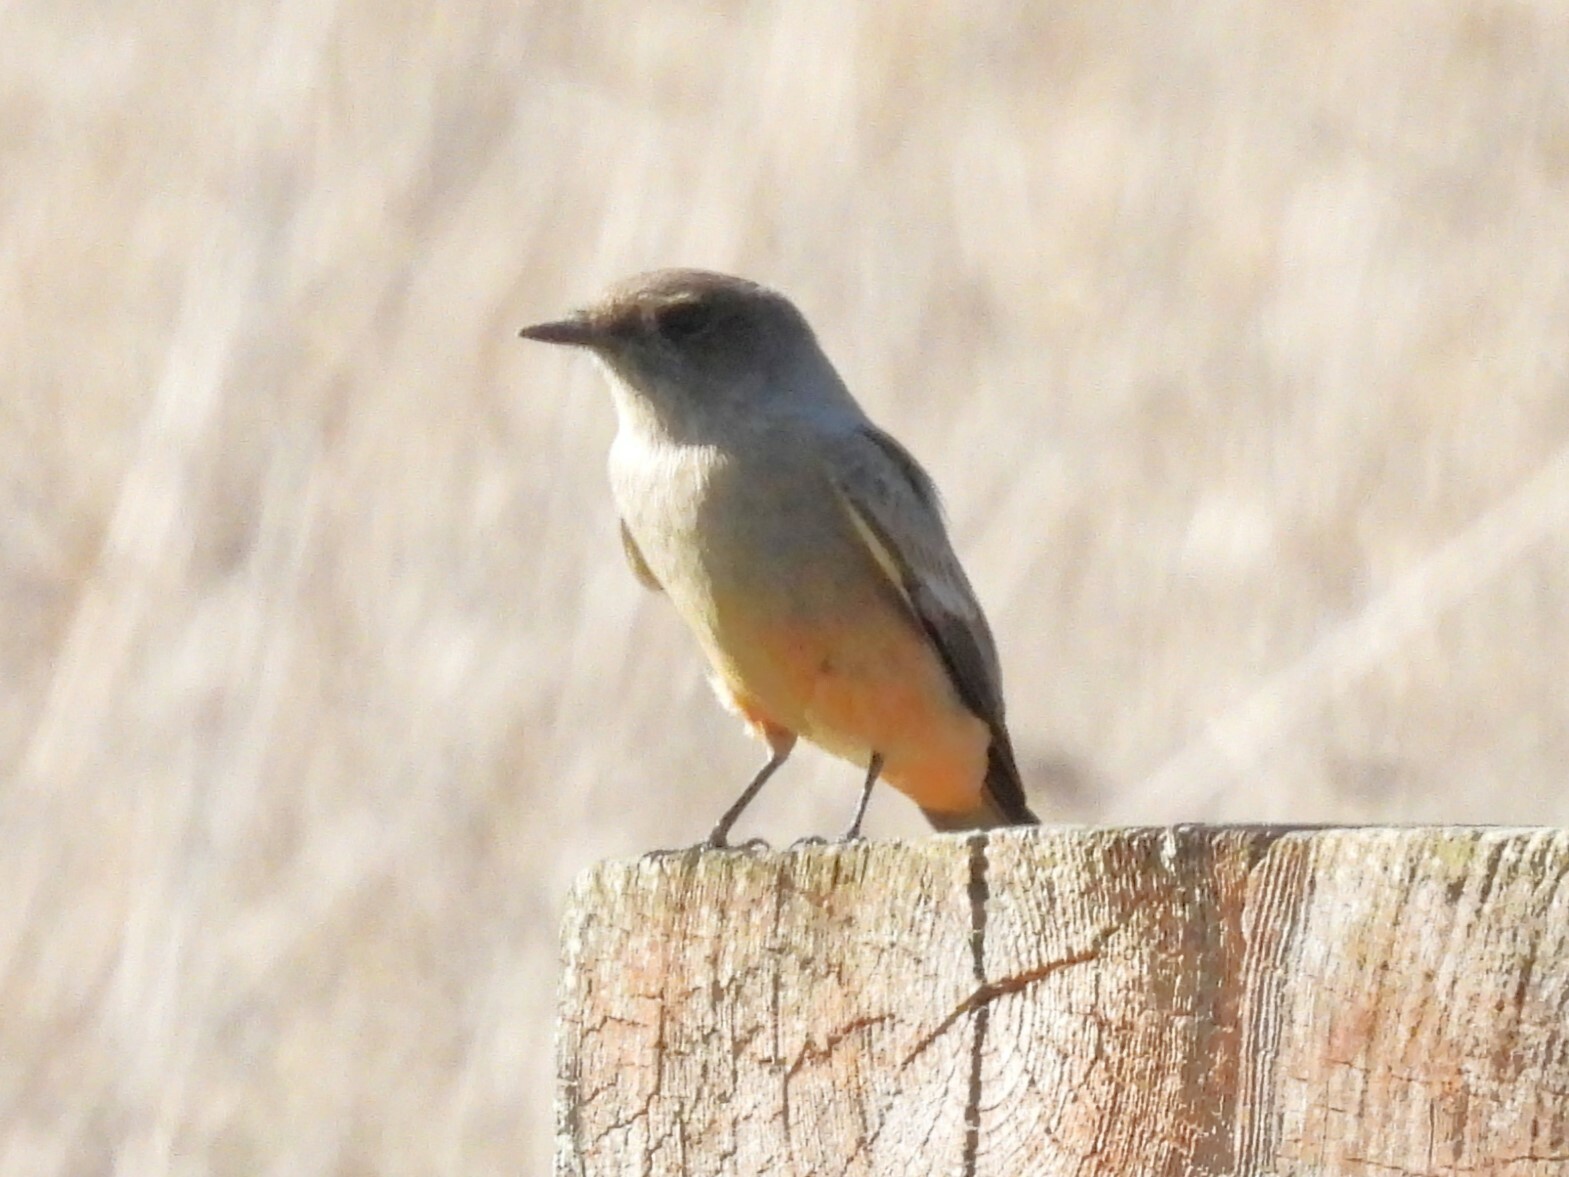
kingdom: Animalia
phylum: Chordata
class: Aves
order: Passeriformes
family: Tyrannidae
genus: Sayornis
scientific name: Sayornis saya
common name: Say's phoebe
